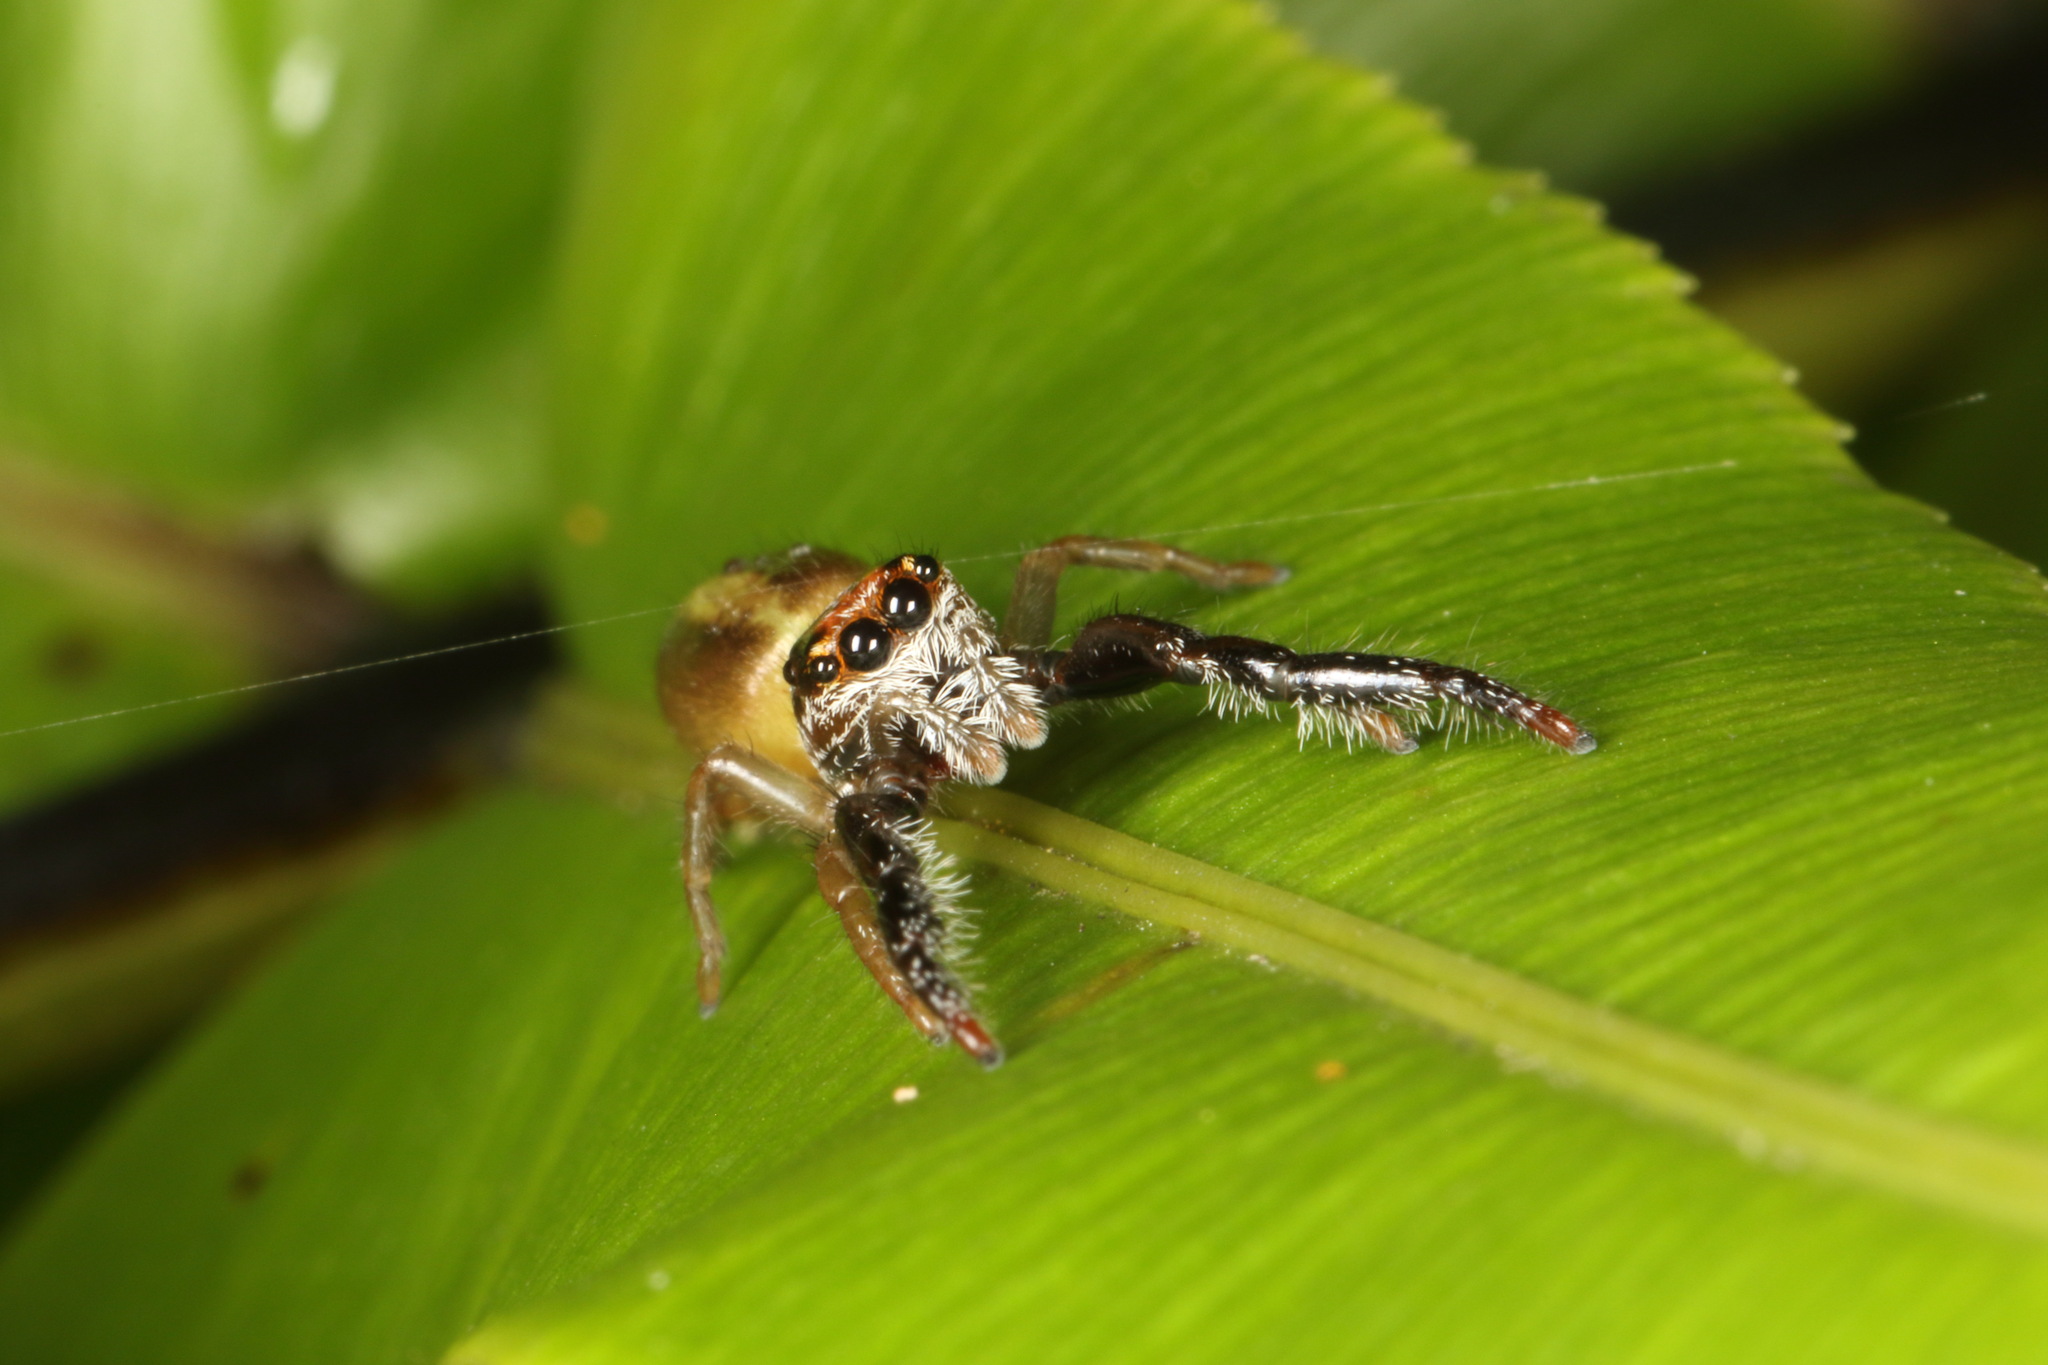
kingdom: Animalia
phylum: Arthropoda
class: Arachnida
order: Araneae
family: Salticidae
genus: Trite
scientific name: Trite planiceps
